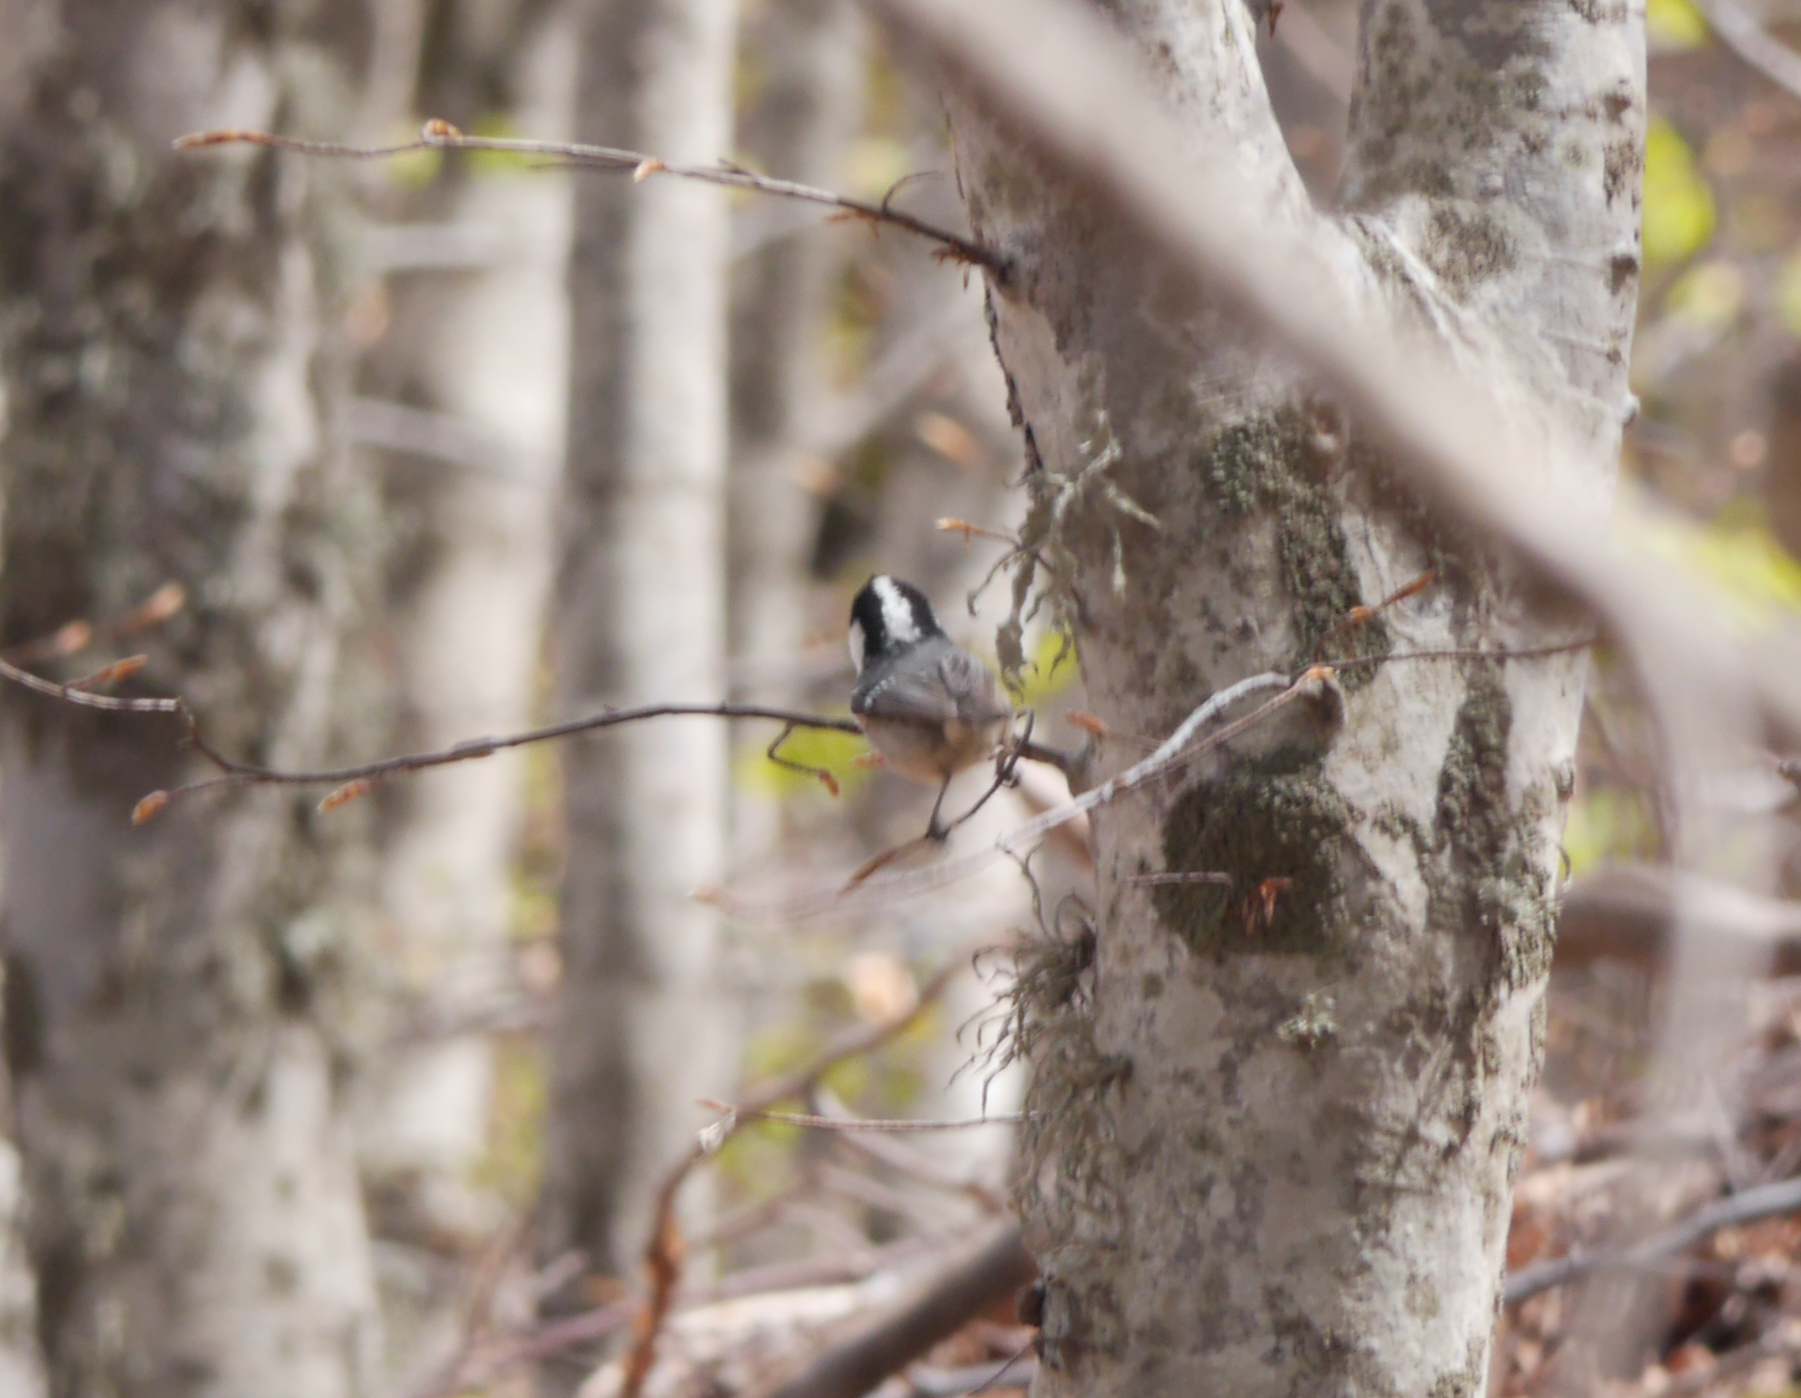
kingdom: Animalia
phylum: Chordata
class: Aves
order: Passeriformes
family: Paridae
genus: Periparus
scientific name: Periparus ater
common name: Coal tit
